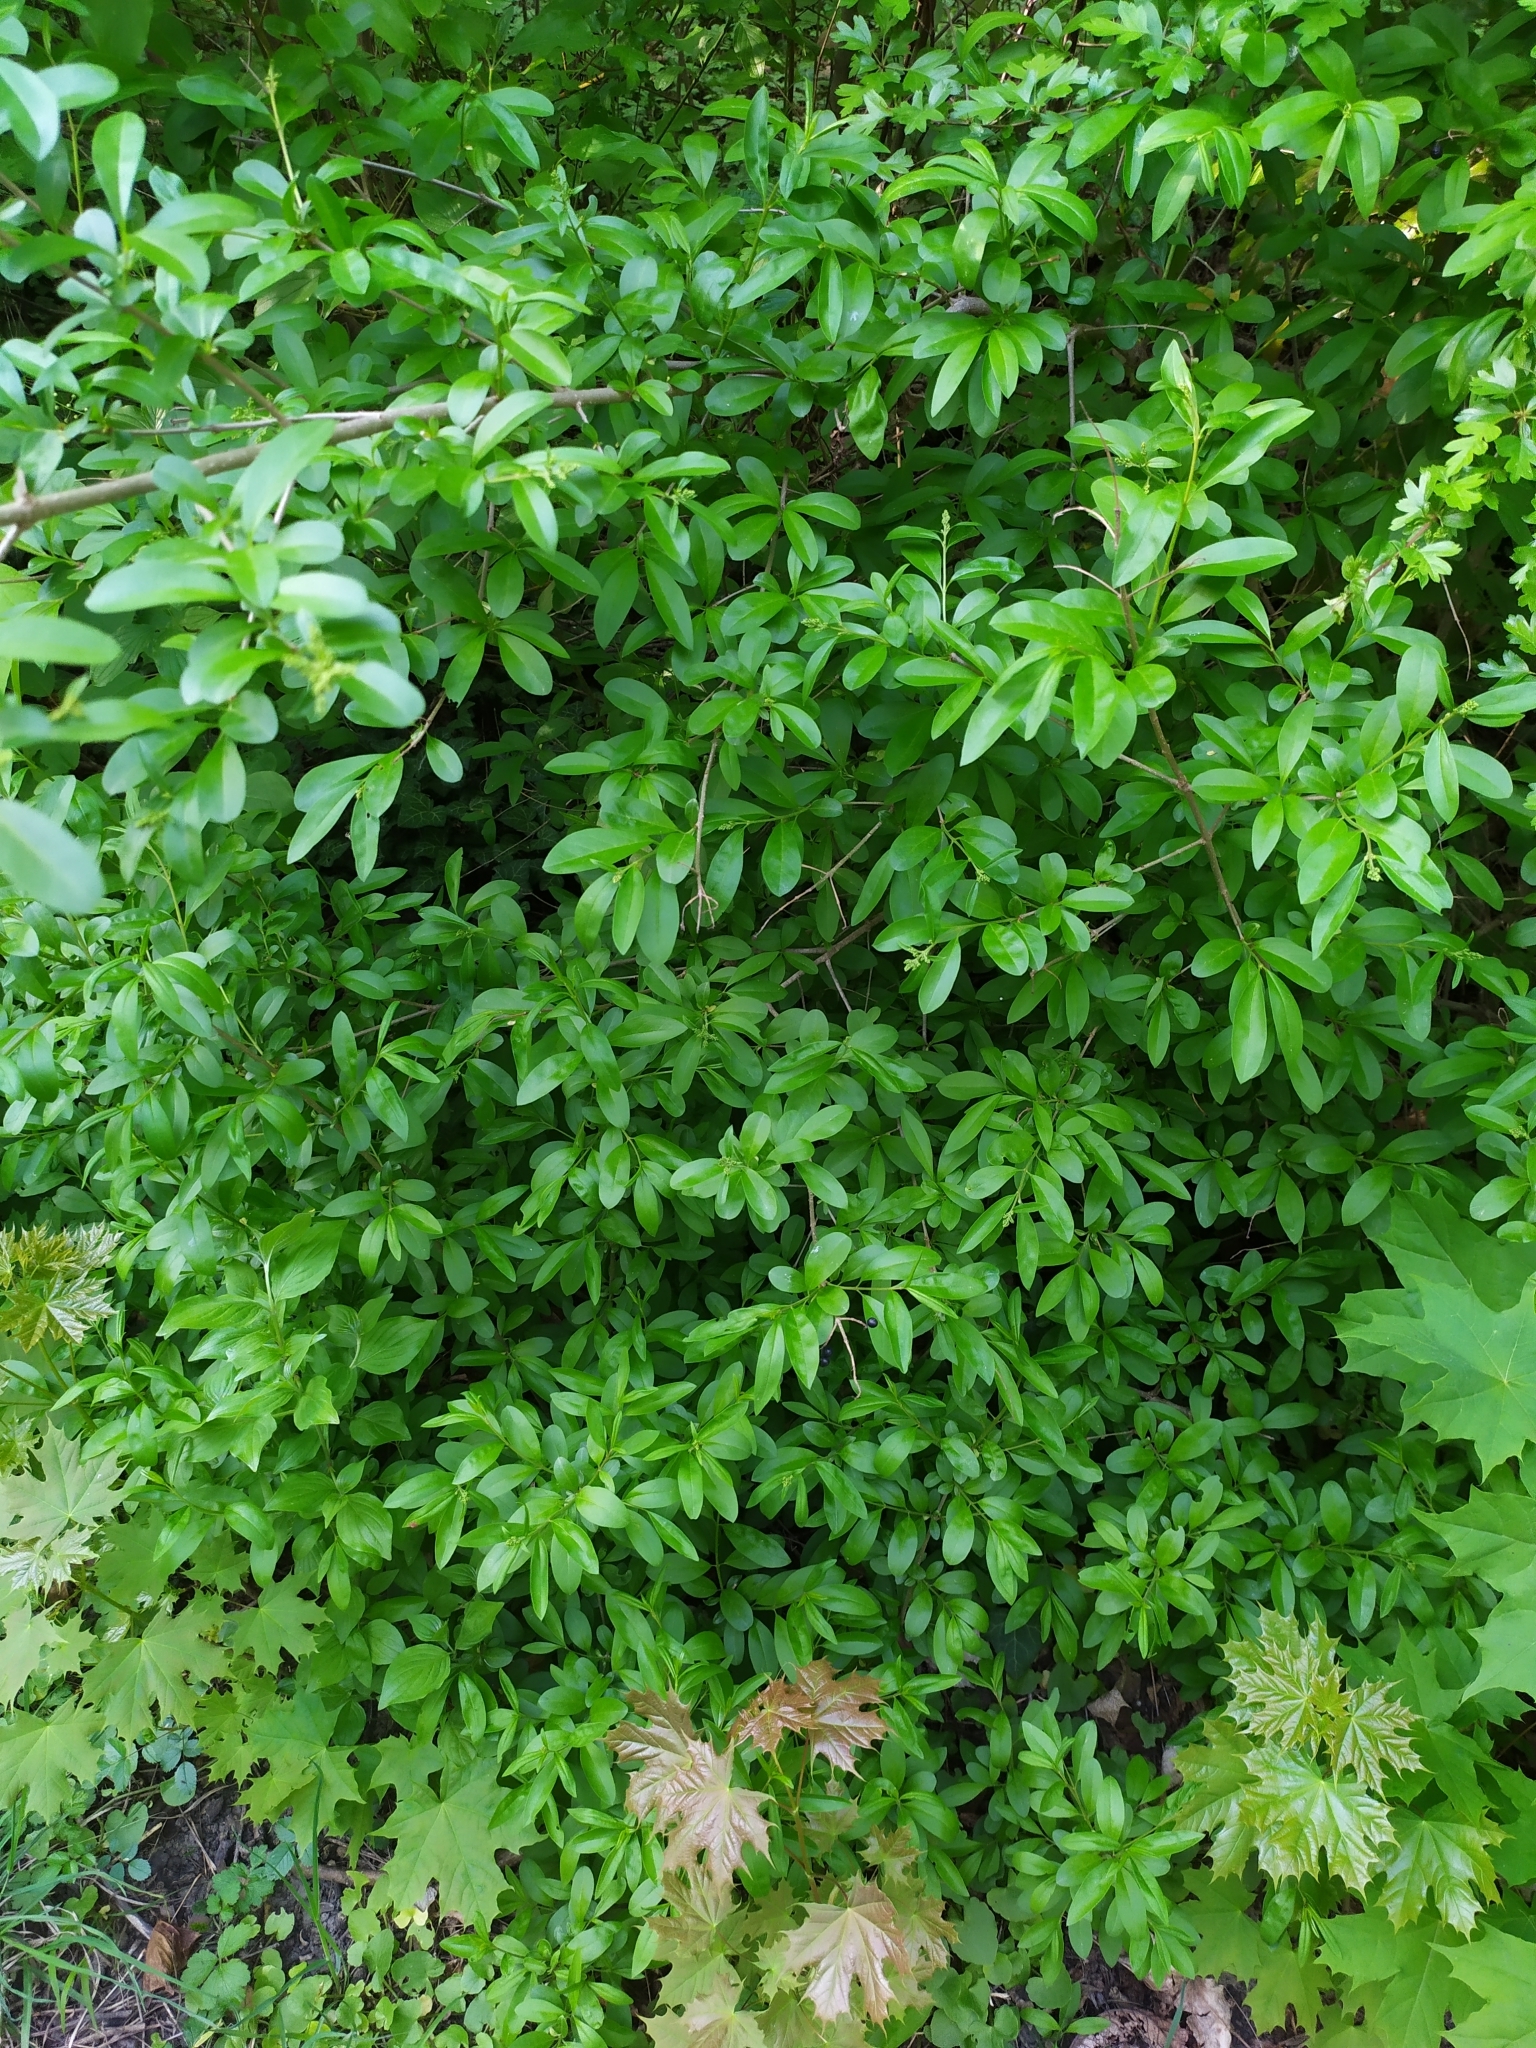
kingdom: Plantae
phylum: Tracheophyta
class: Magnoliopsida
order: Lamiales
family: Oleaceae
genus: Ligustrum
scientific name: Ligustrum vulgare
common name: Wild privet
